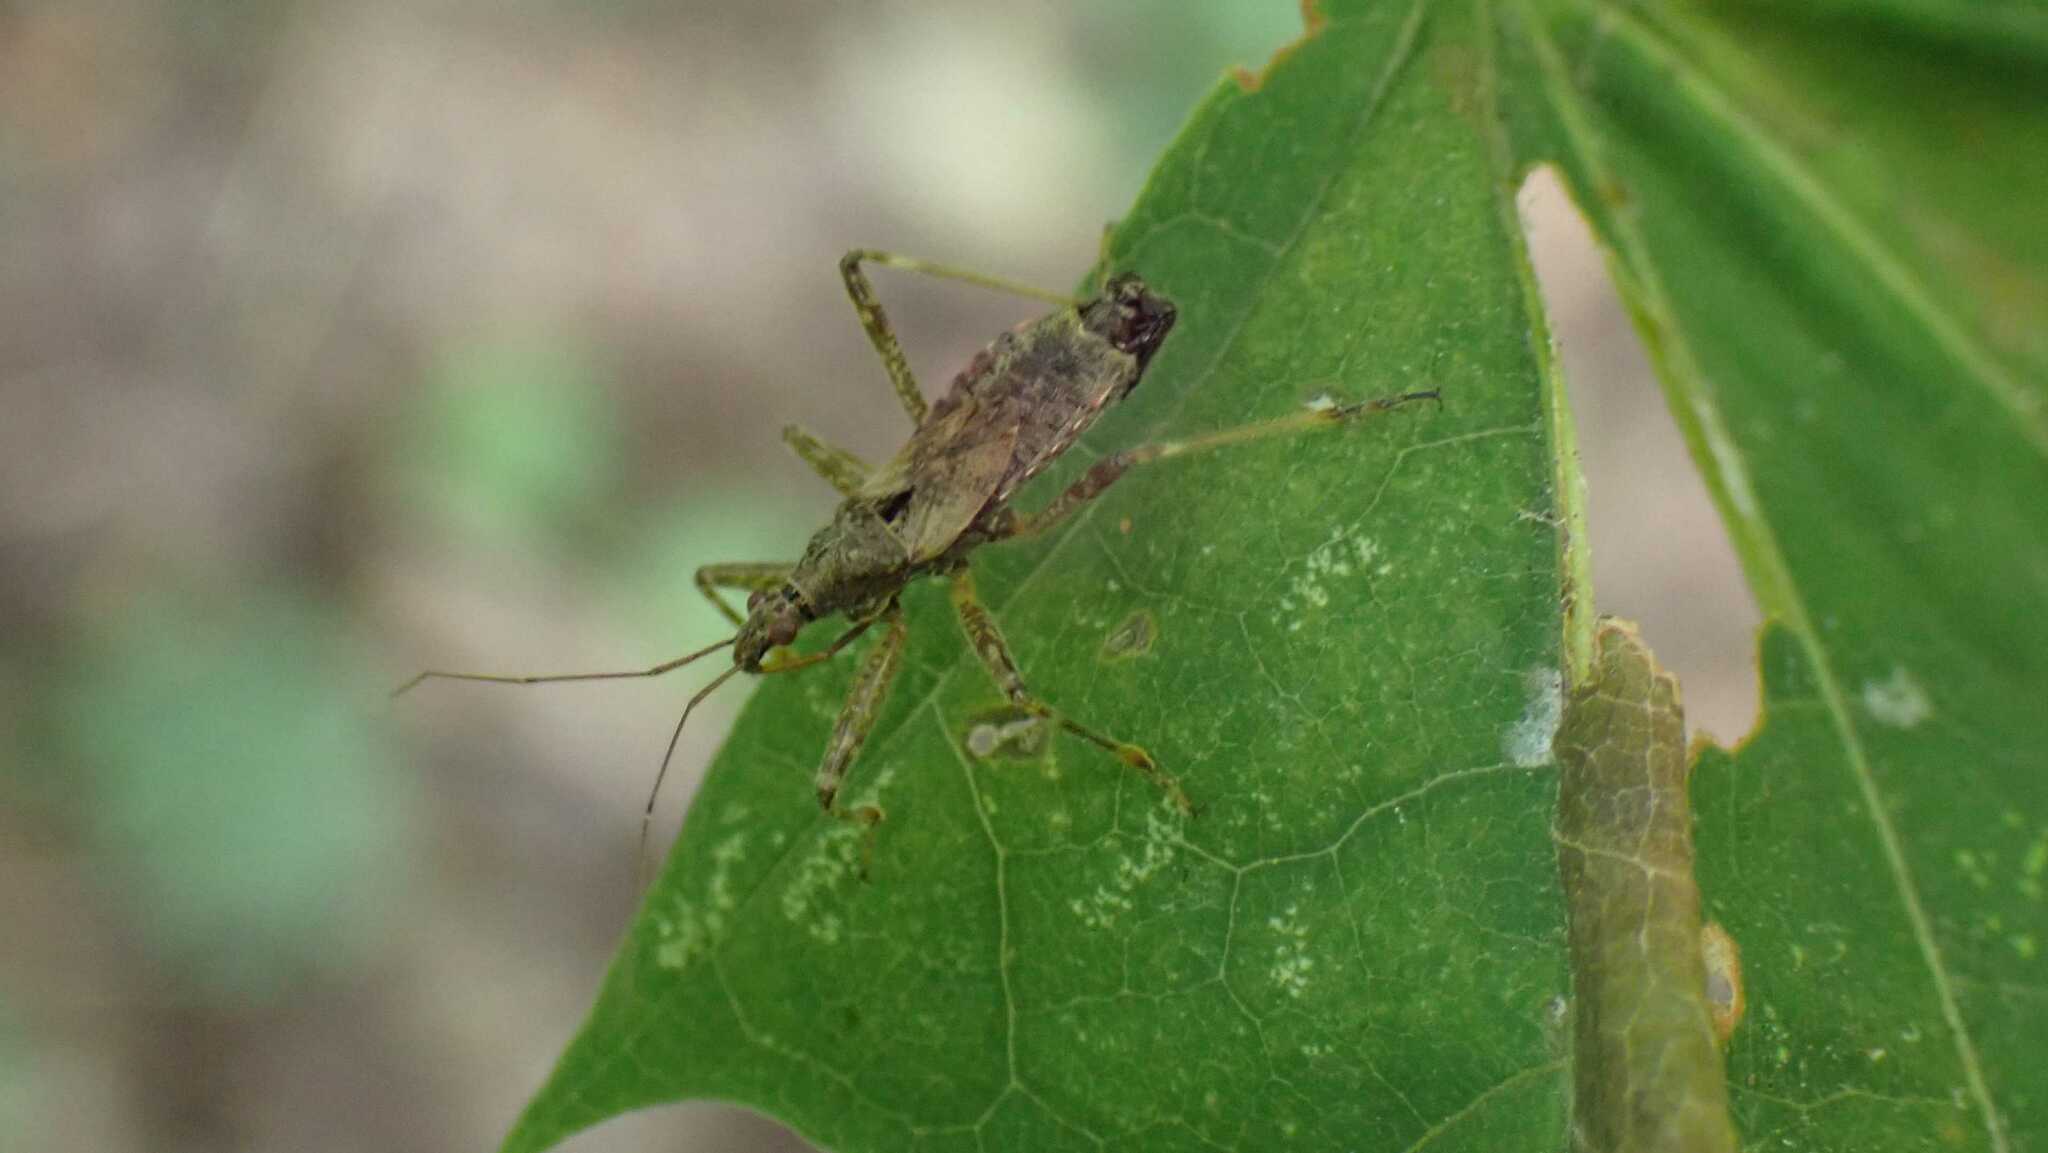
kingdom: Animalia
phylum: Arthropoda
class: Insecta
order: Hemiptera
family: Nabidae
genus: Himacerus
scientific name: Himacerus apterus
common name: Tree damsel bug
